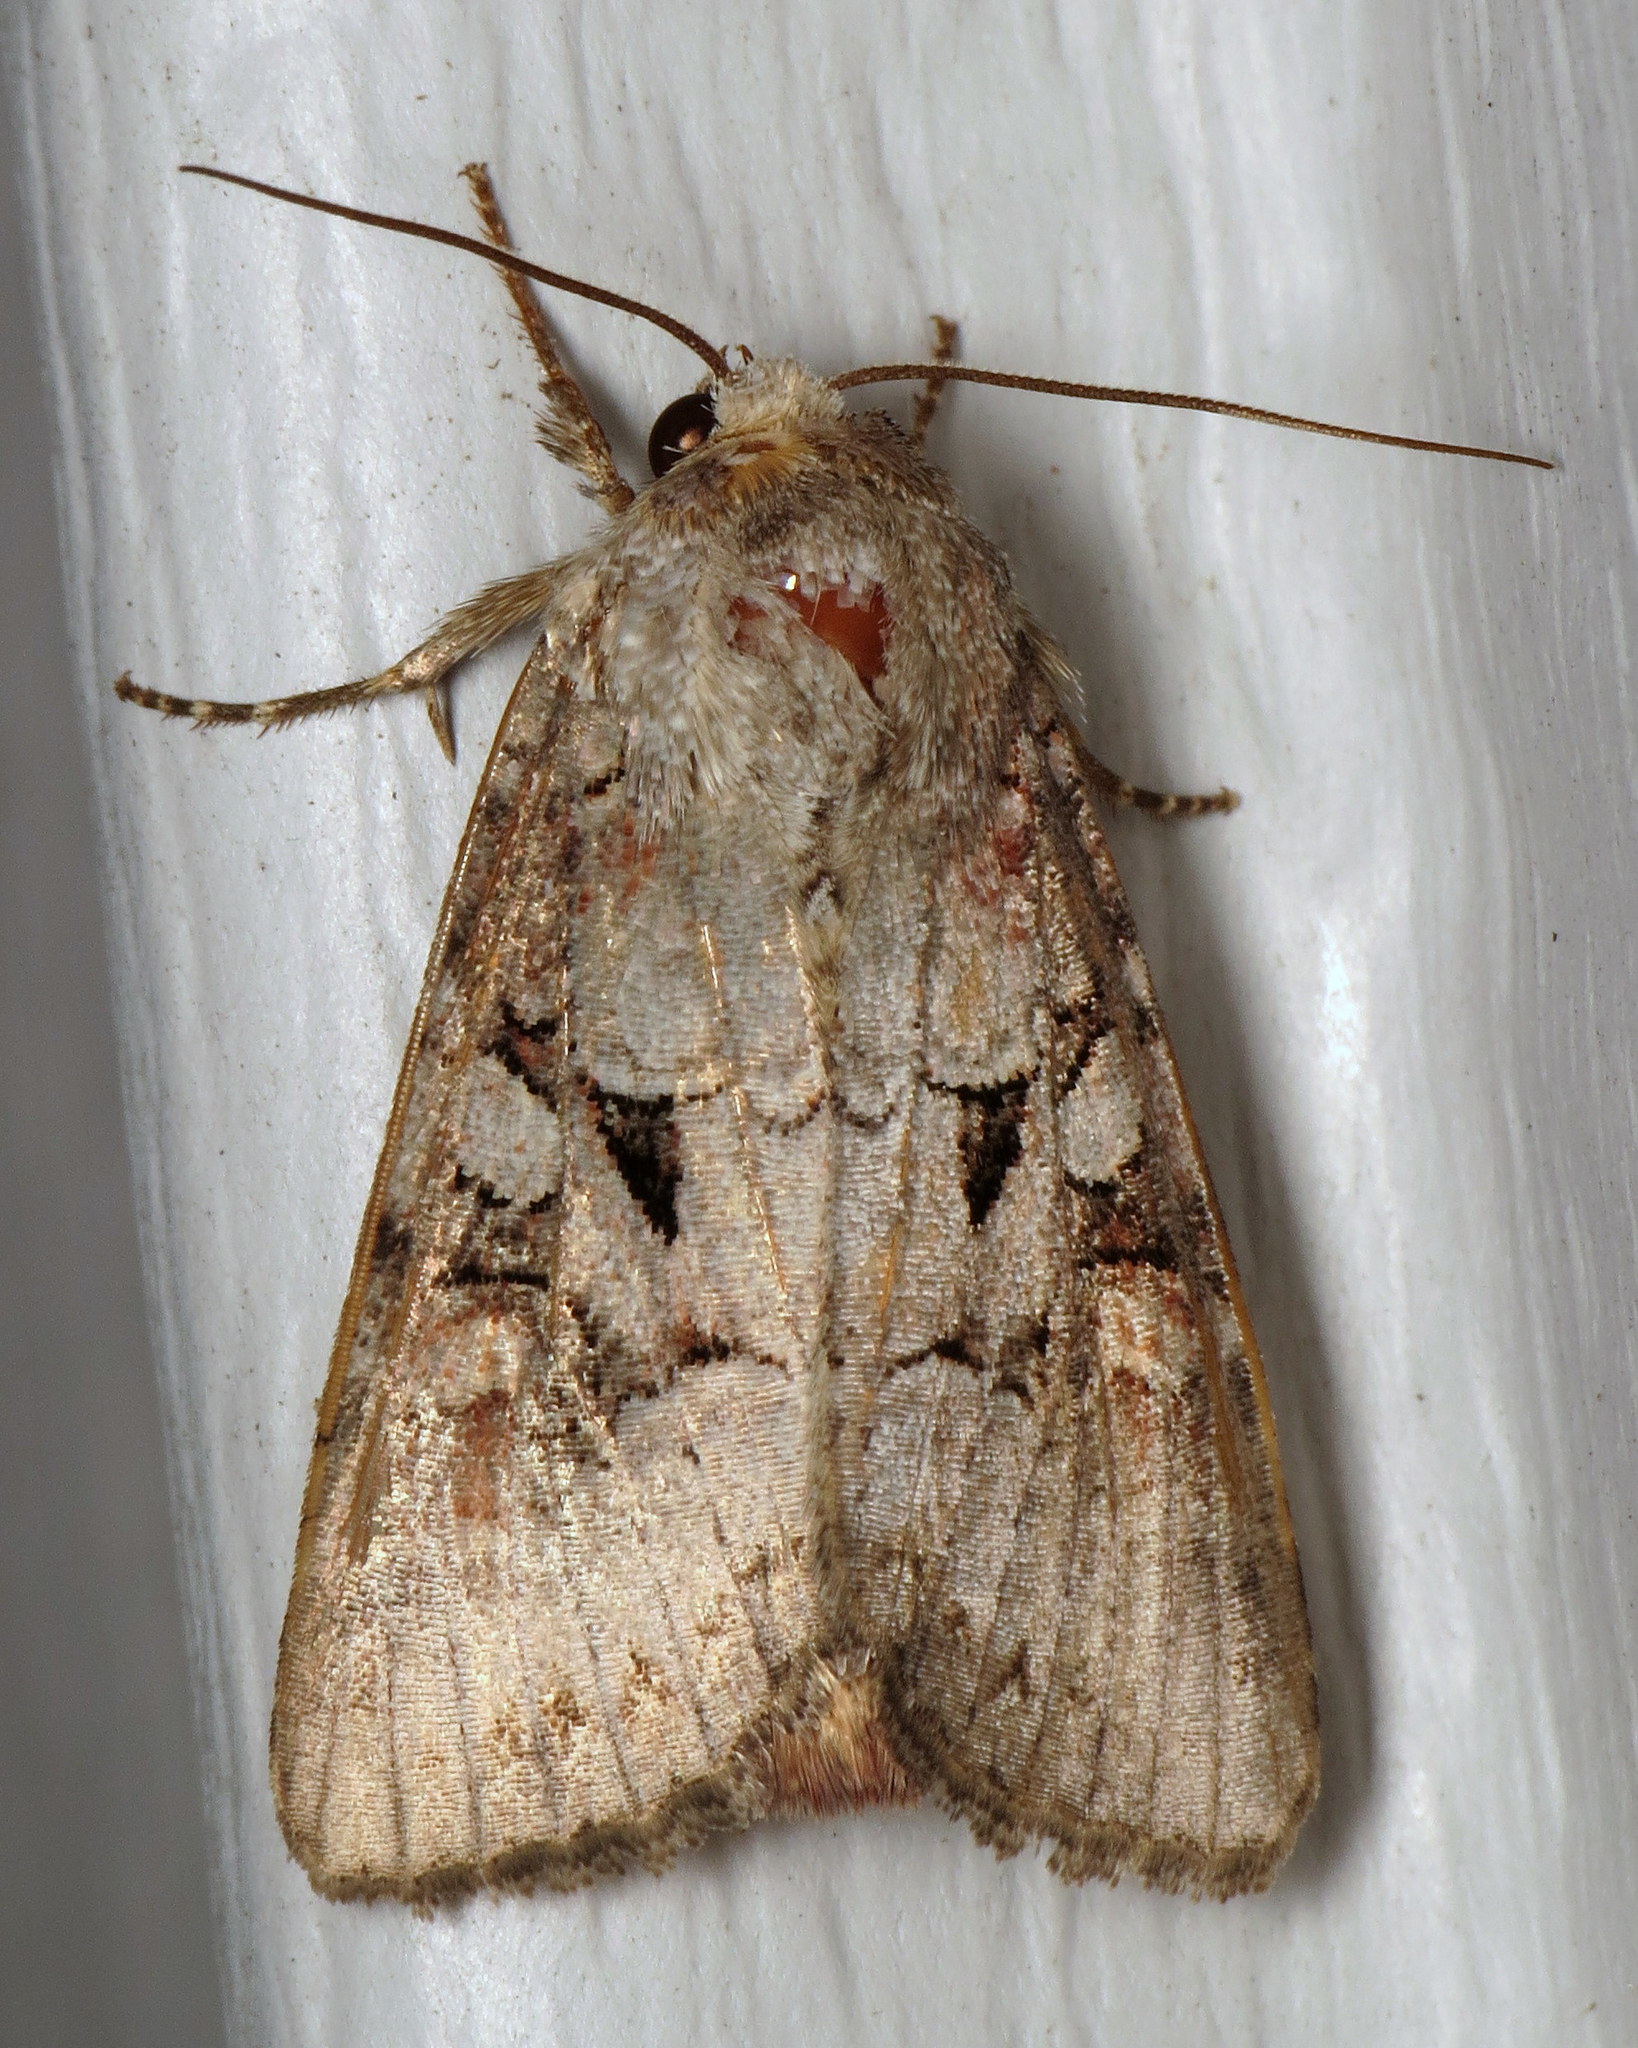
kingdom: Animalia
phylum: Arthropoda
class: Insecta
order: Lepidoptera
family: Noctuidae
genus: Trichordestra
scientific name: Trichordestra legitima
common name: Striped garden caterpillar
